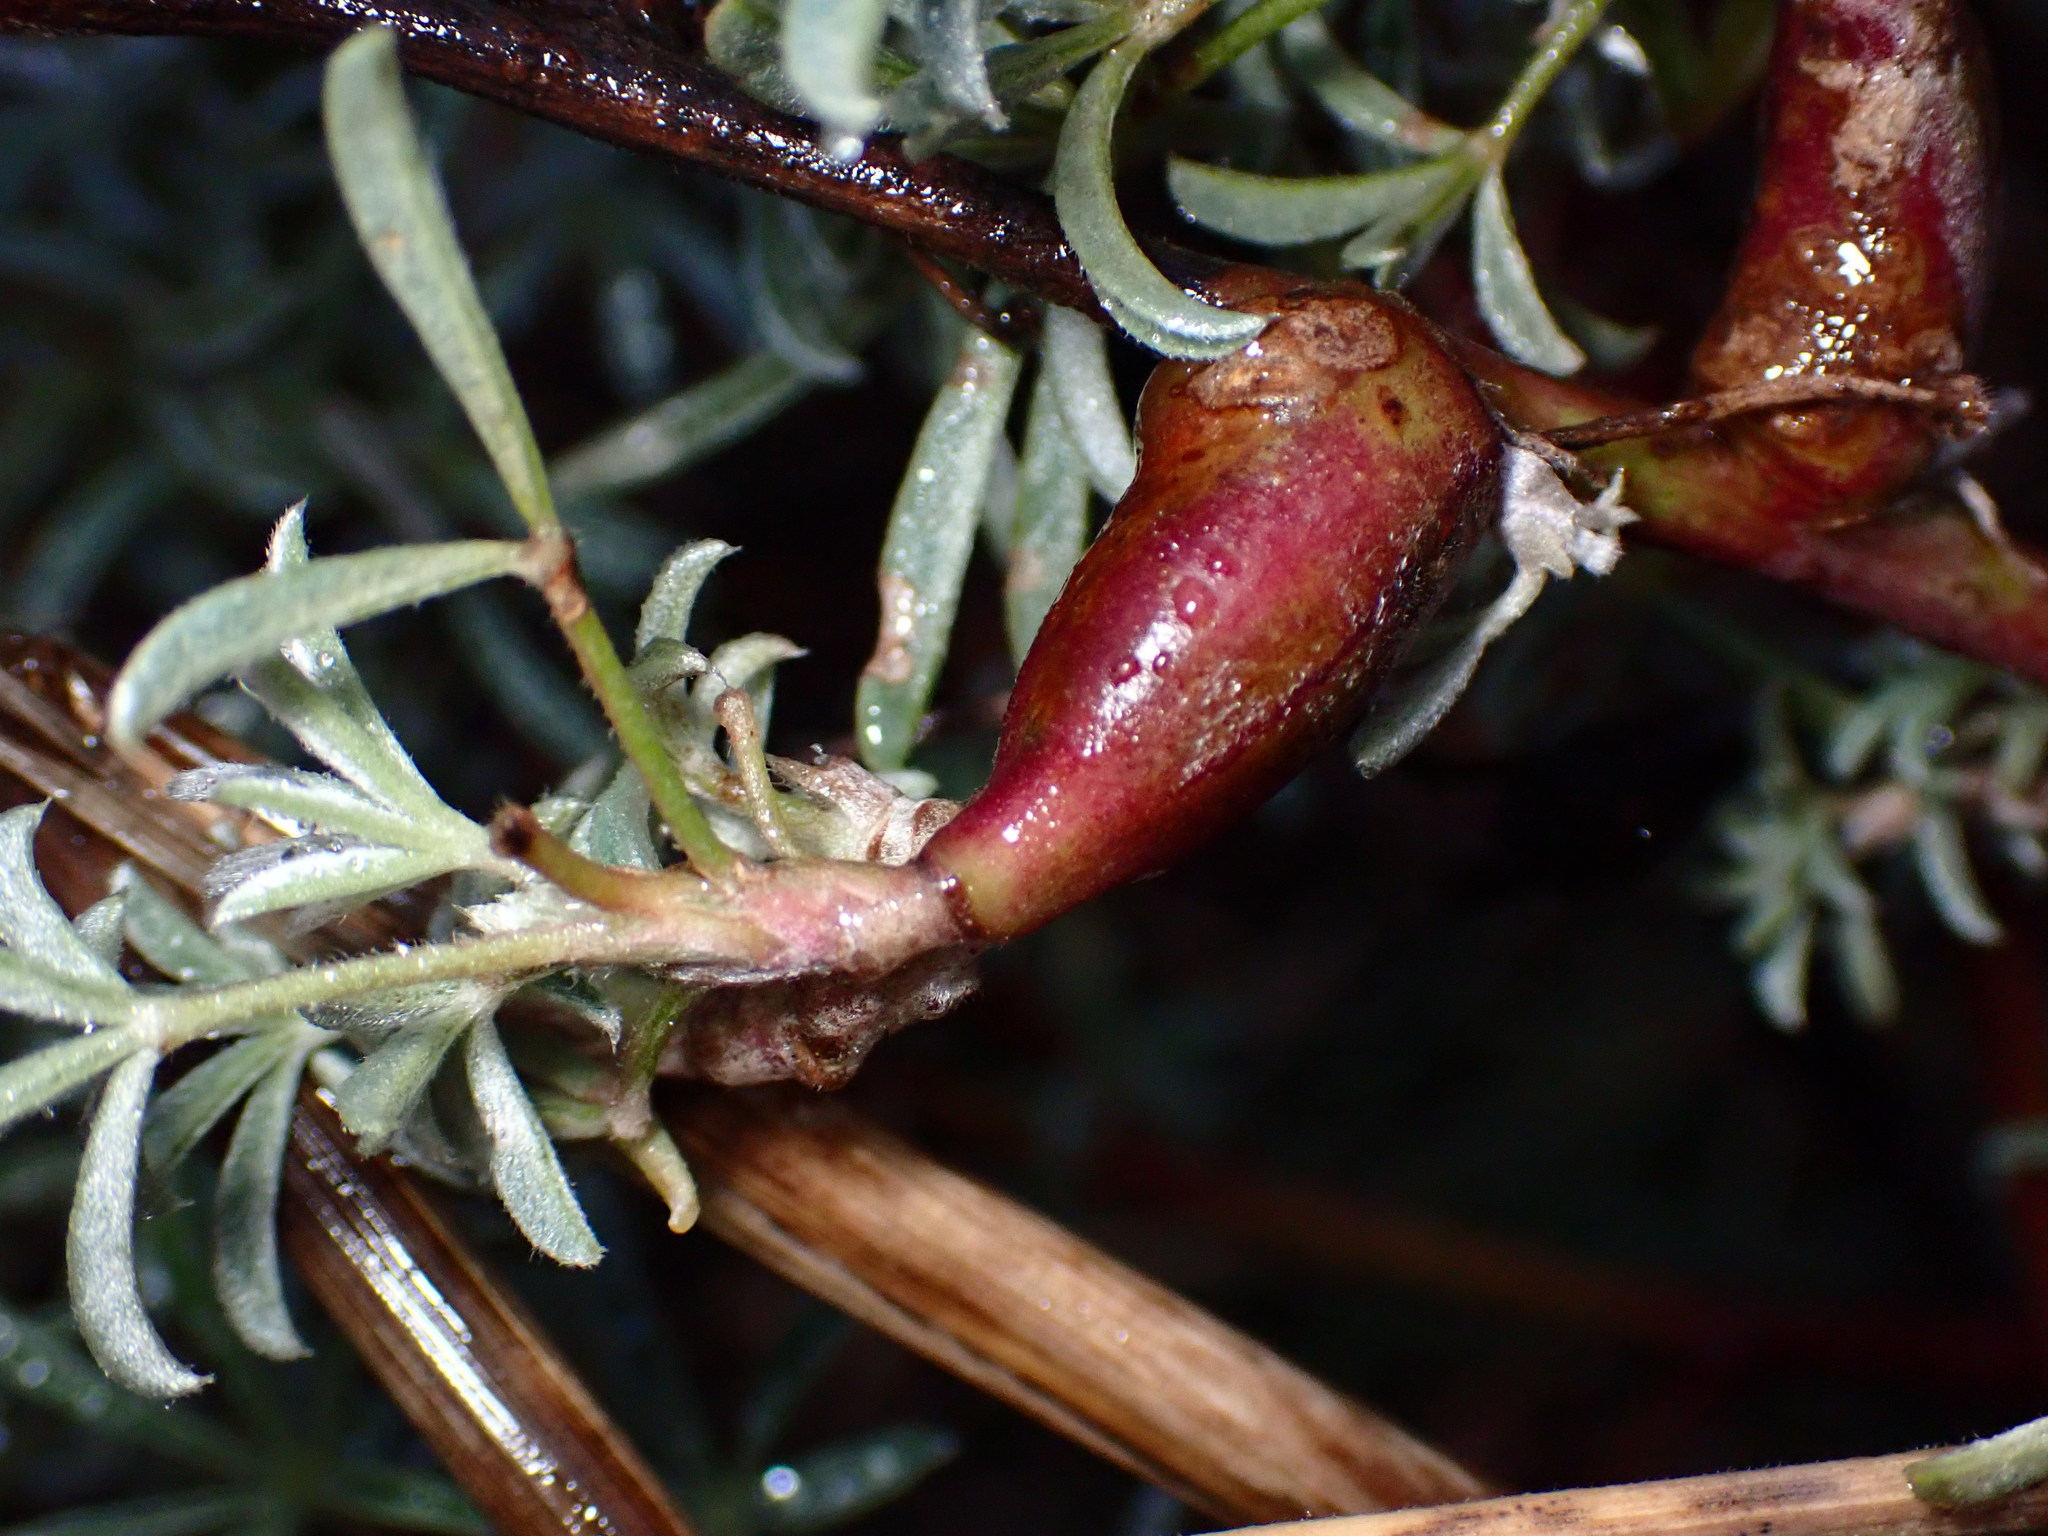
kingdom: Animalia
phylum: Arthropoda
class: Insecta
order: Diptera
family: Cecidomyiidae
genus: Neolasioptera
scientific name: Neolasioptera lupini
